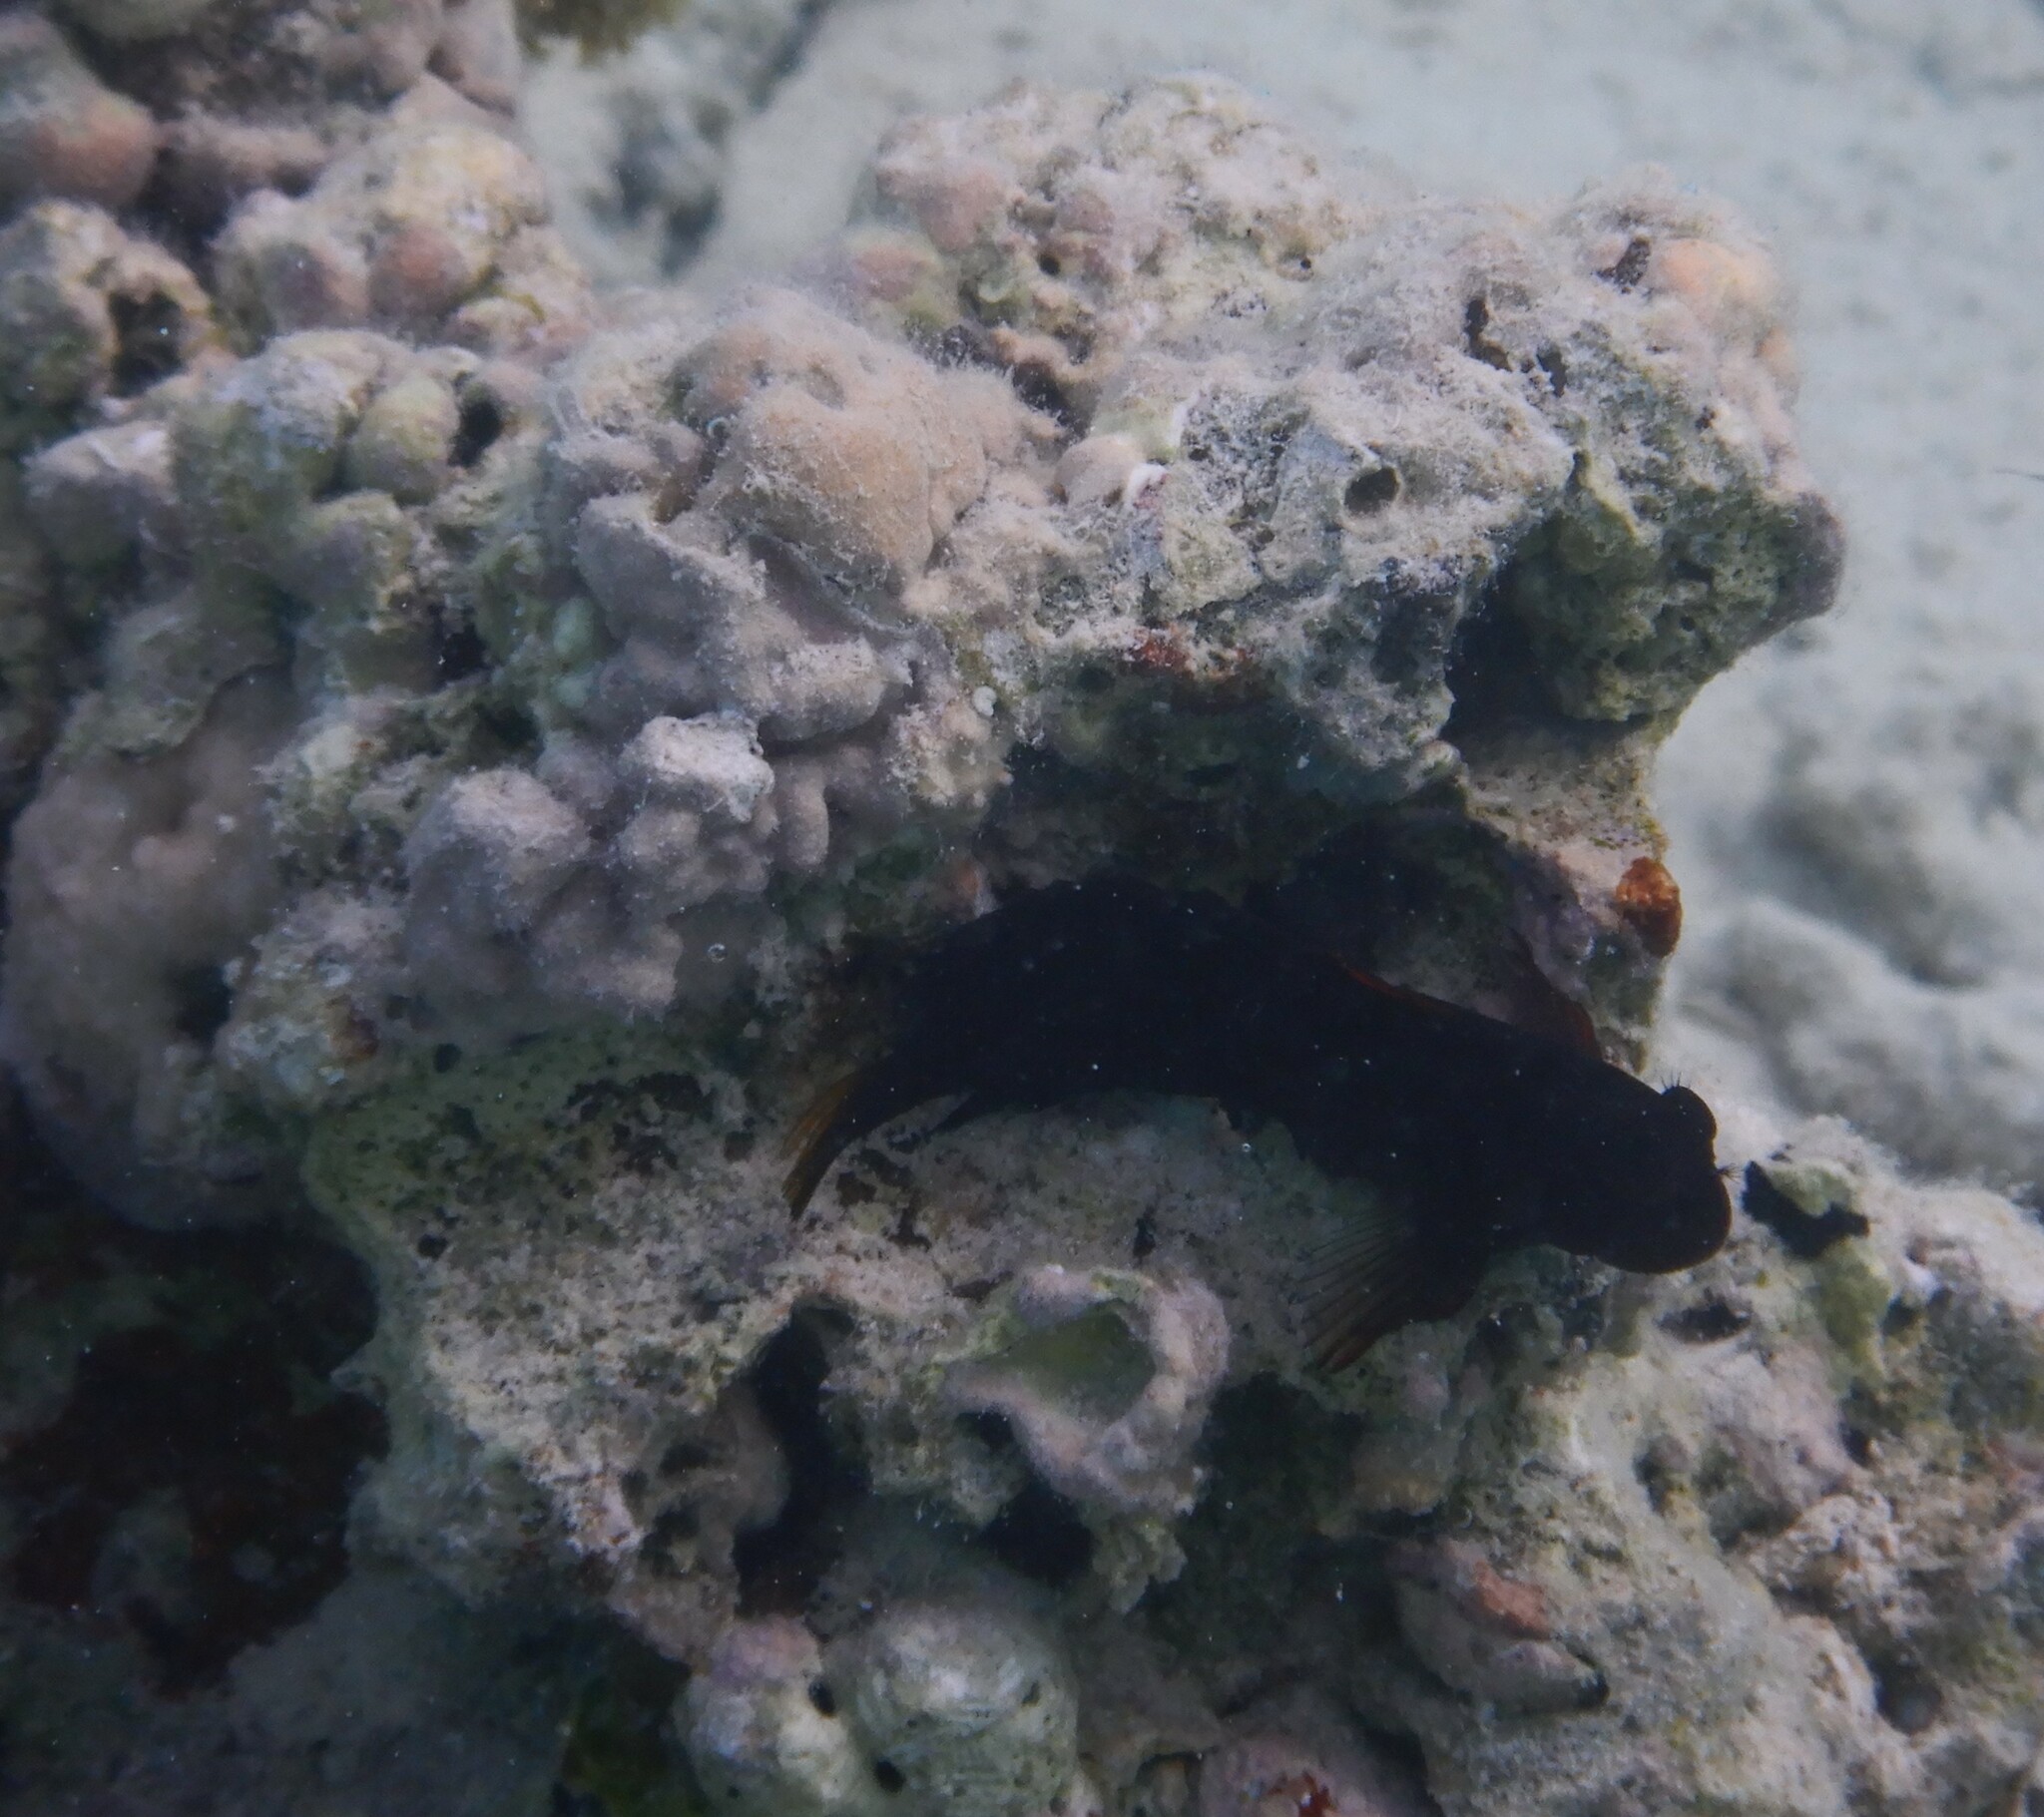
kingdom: Animalia
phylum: Chordata
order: Perciformes
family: Blenniidae
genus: Cirripectes
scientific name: Cirripectes castaneus
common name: Chestnut blenny
